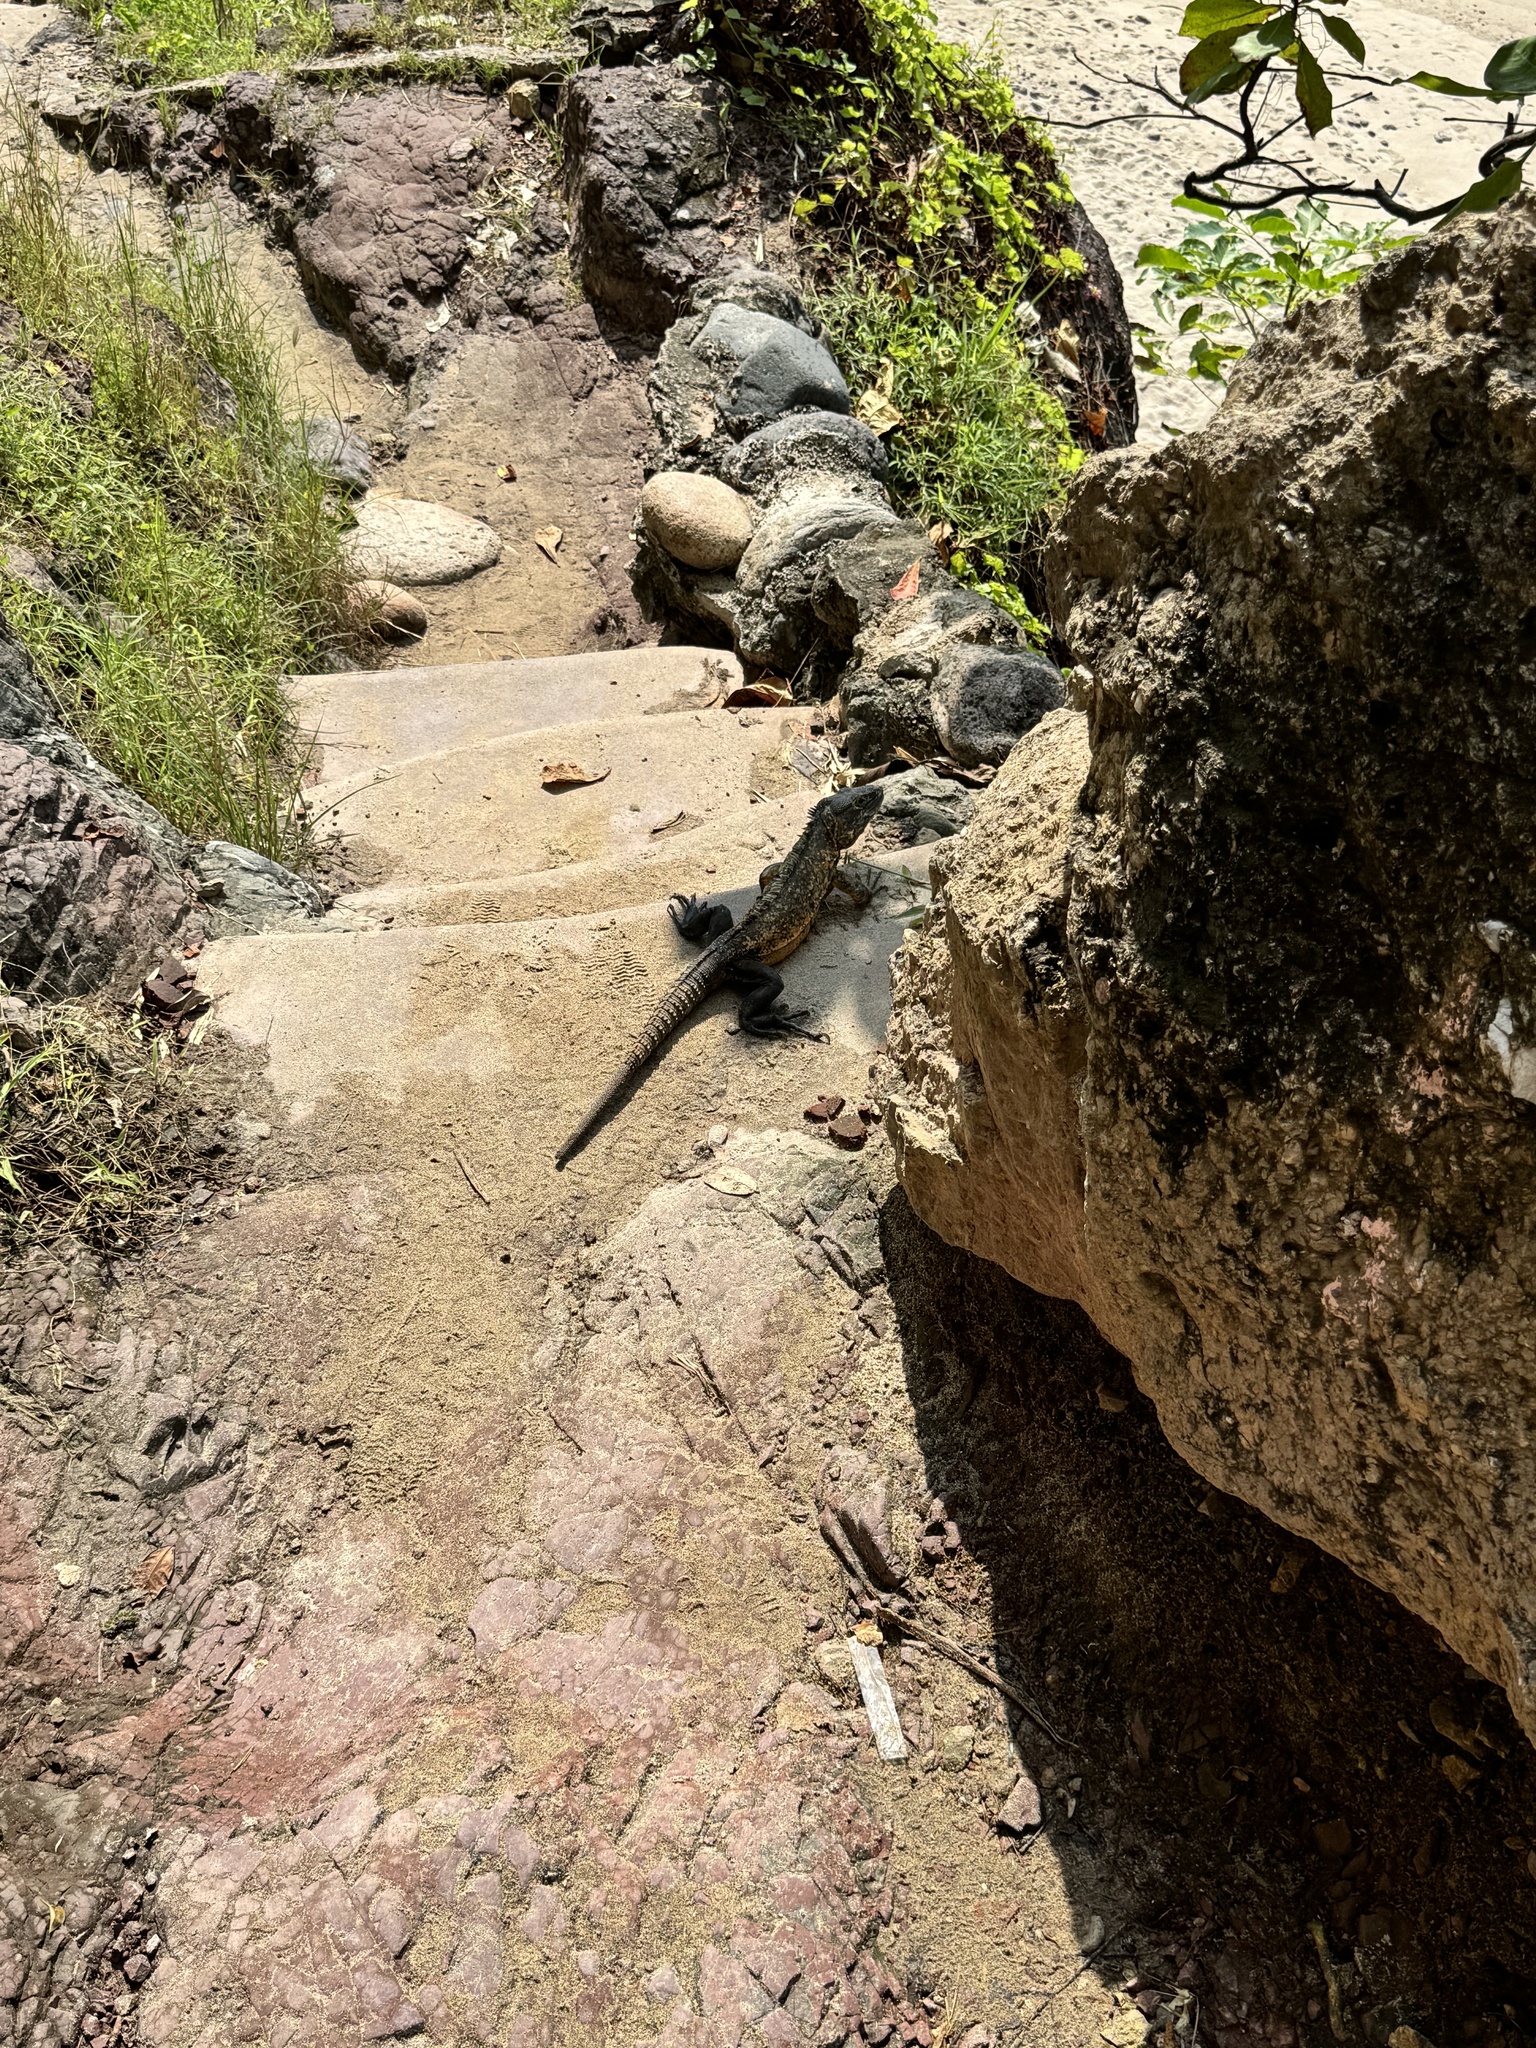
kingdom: Animalia
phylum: Chordata
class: Squamata
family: Iguanidae
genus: Ctenosaura
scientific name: Ctenosaura pectinata
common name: Guerreran spiny-tailed iguana
